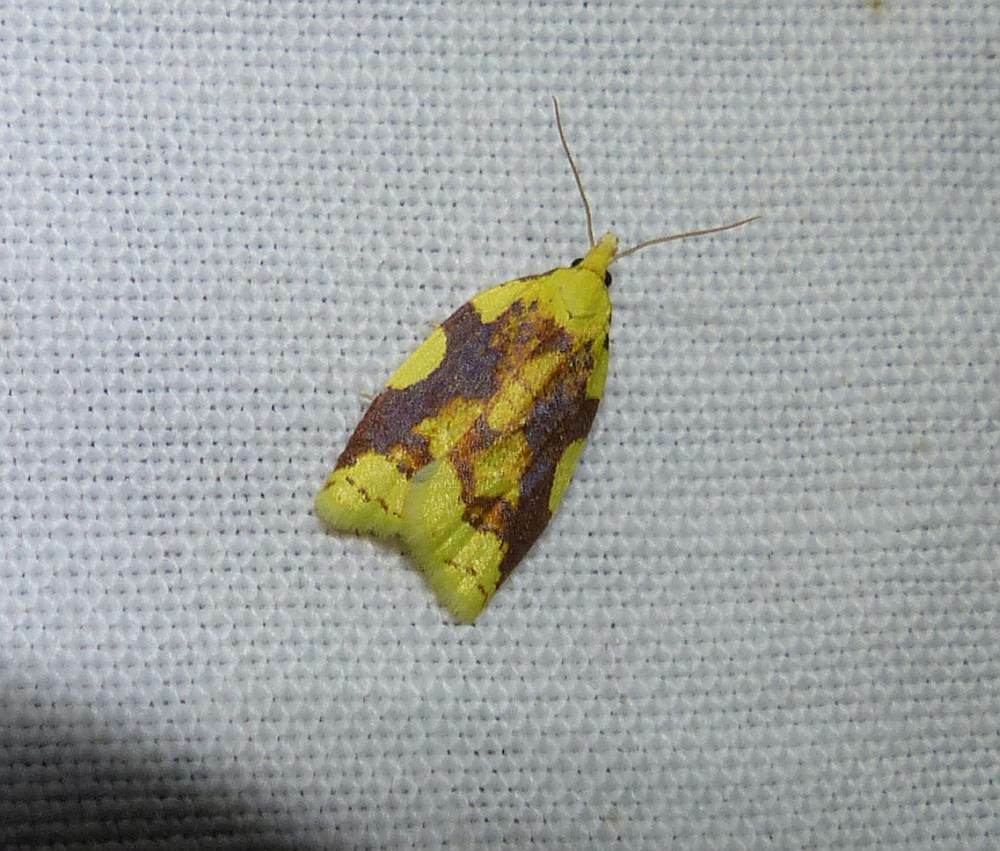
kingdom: Animalia
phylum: Arthropoda
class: Insecta
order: Lepidoptera
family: Tortricidae
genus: Cenopis
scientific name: Cenopis niveana
